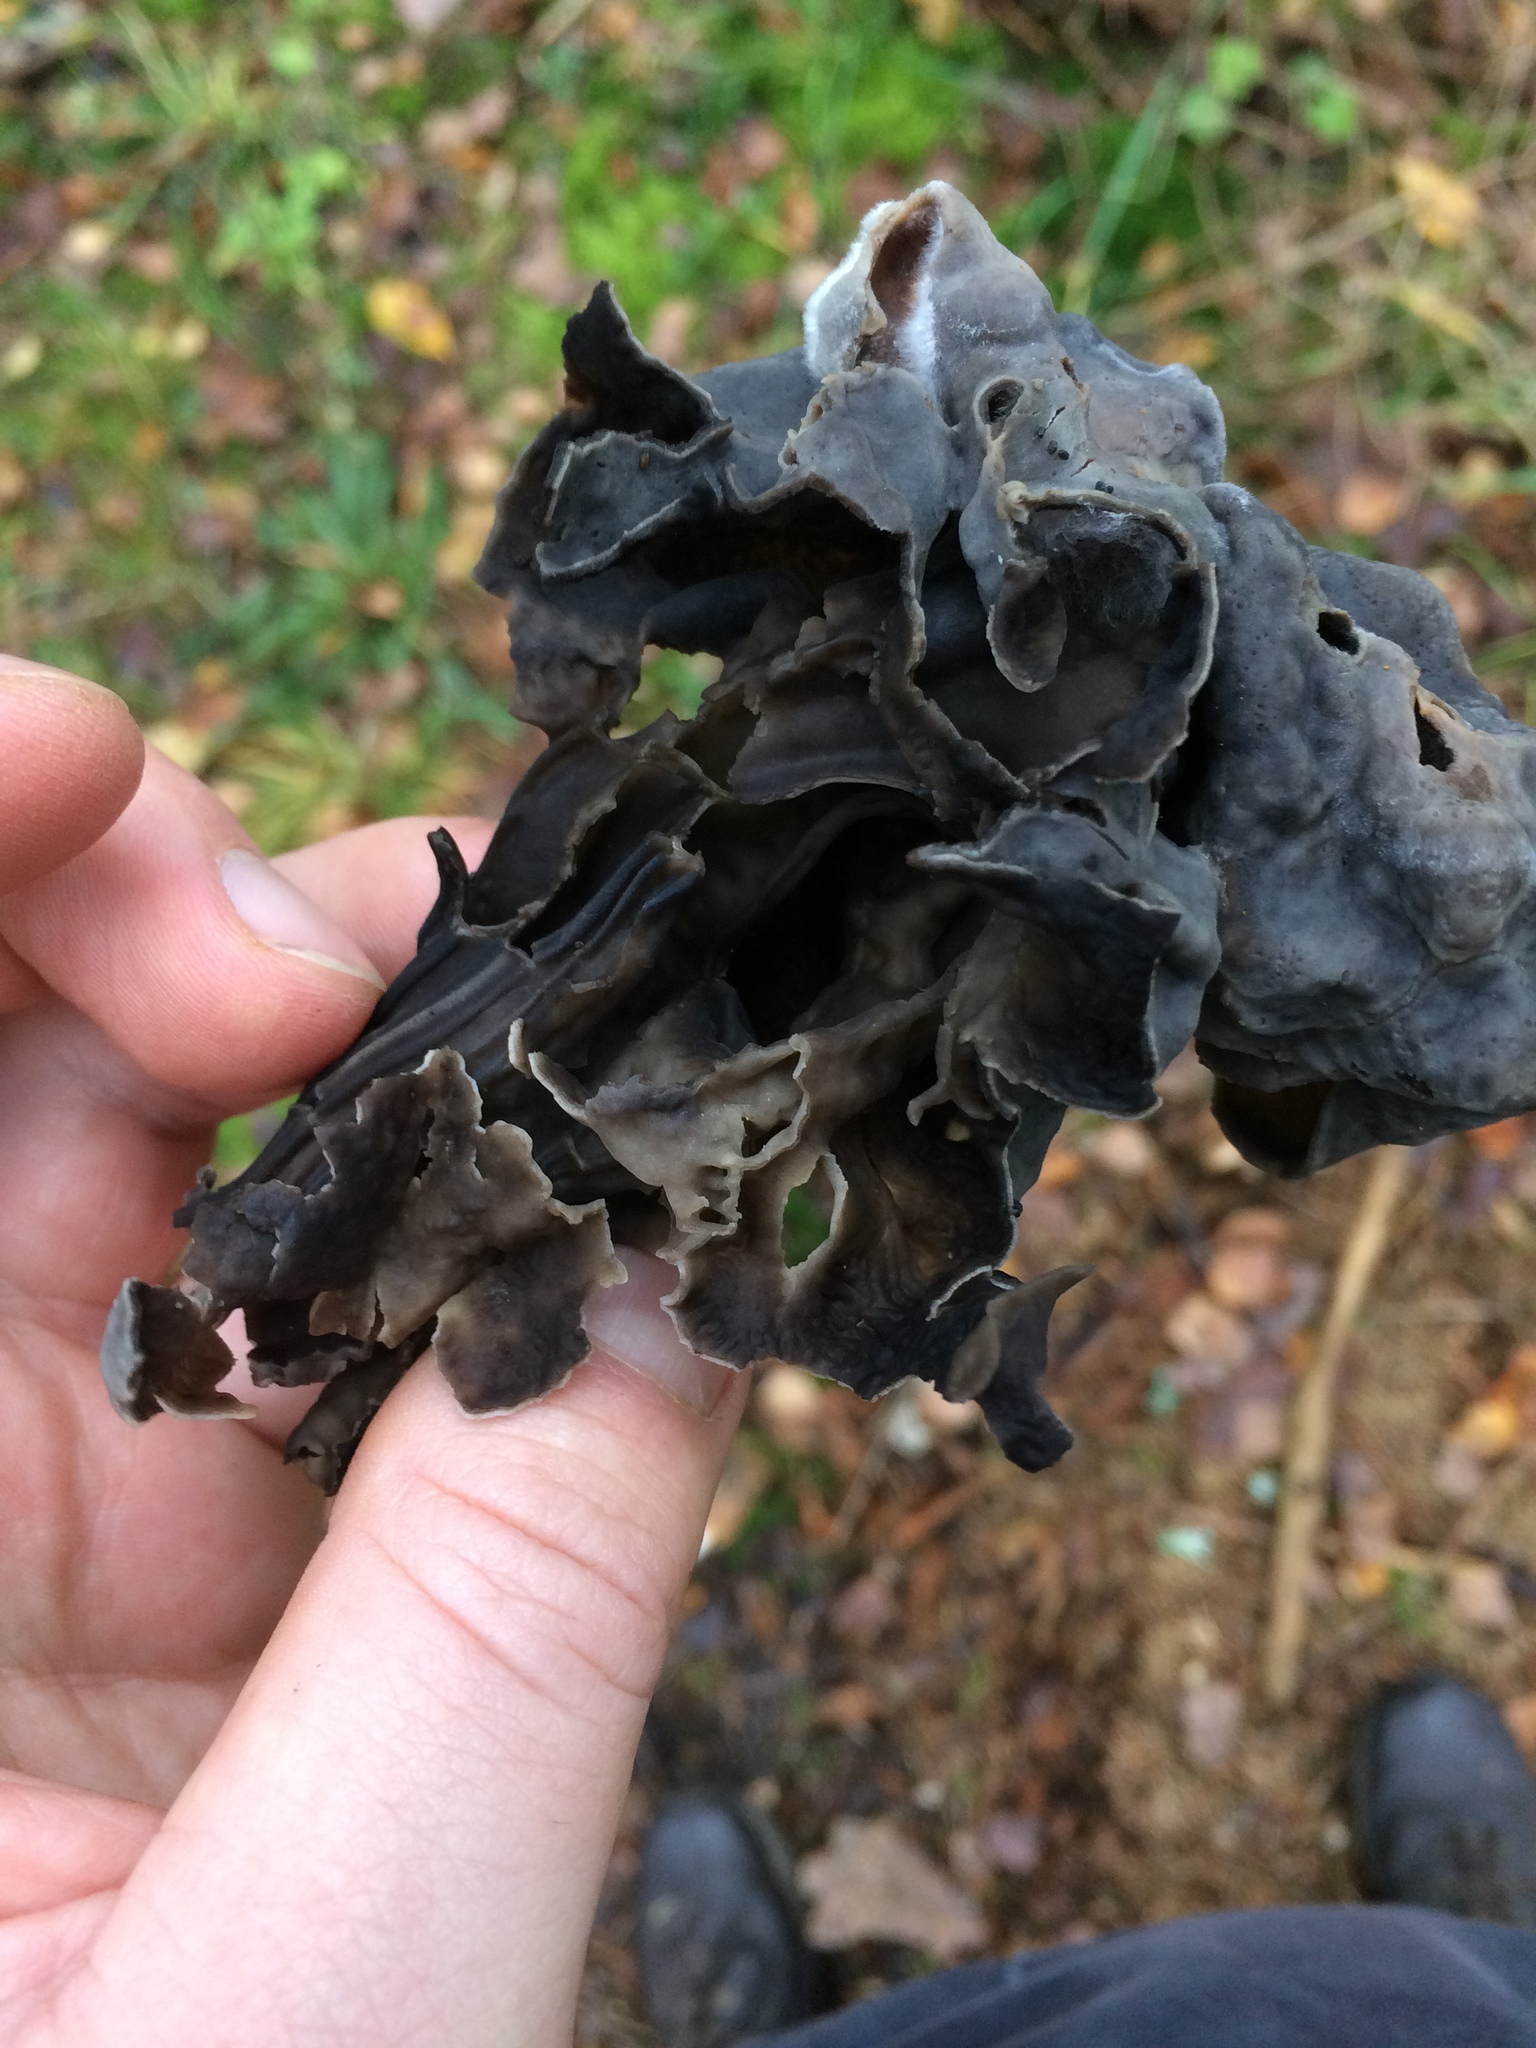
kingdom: Fungi
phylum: Ascomycota
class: Pezizomycetes
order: Pezizales
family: Helvellaceae
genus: Helvella
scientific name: Helvella lacunosa
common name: Elfin saddle
